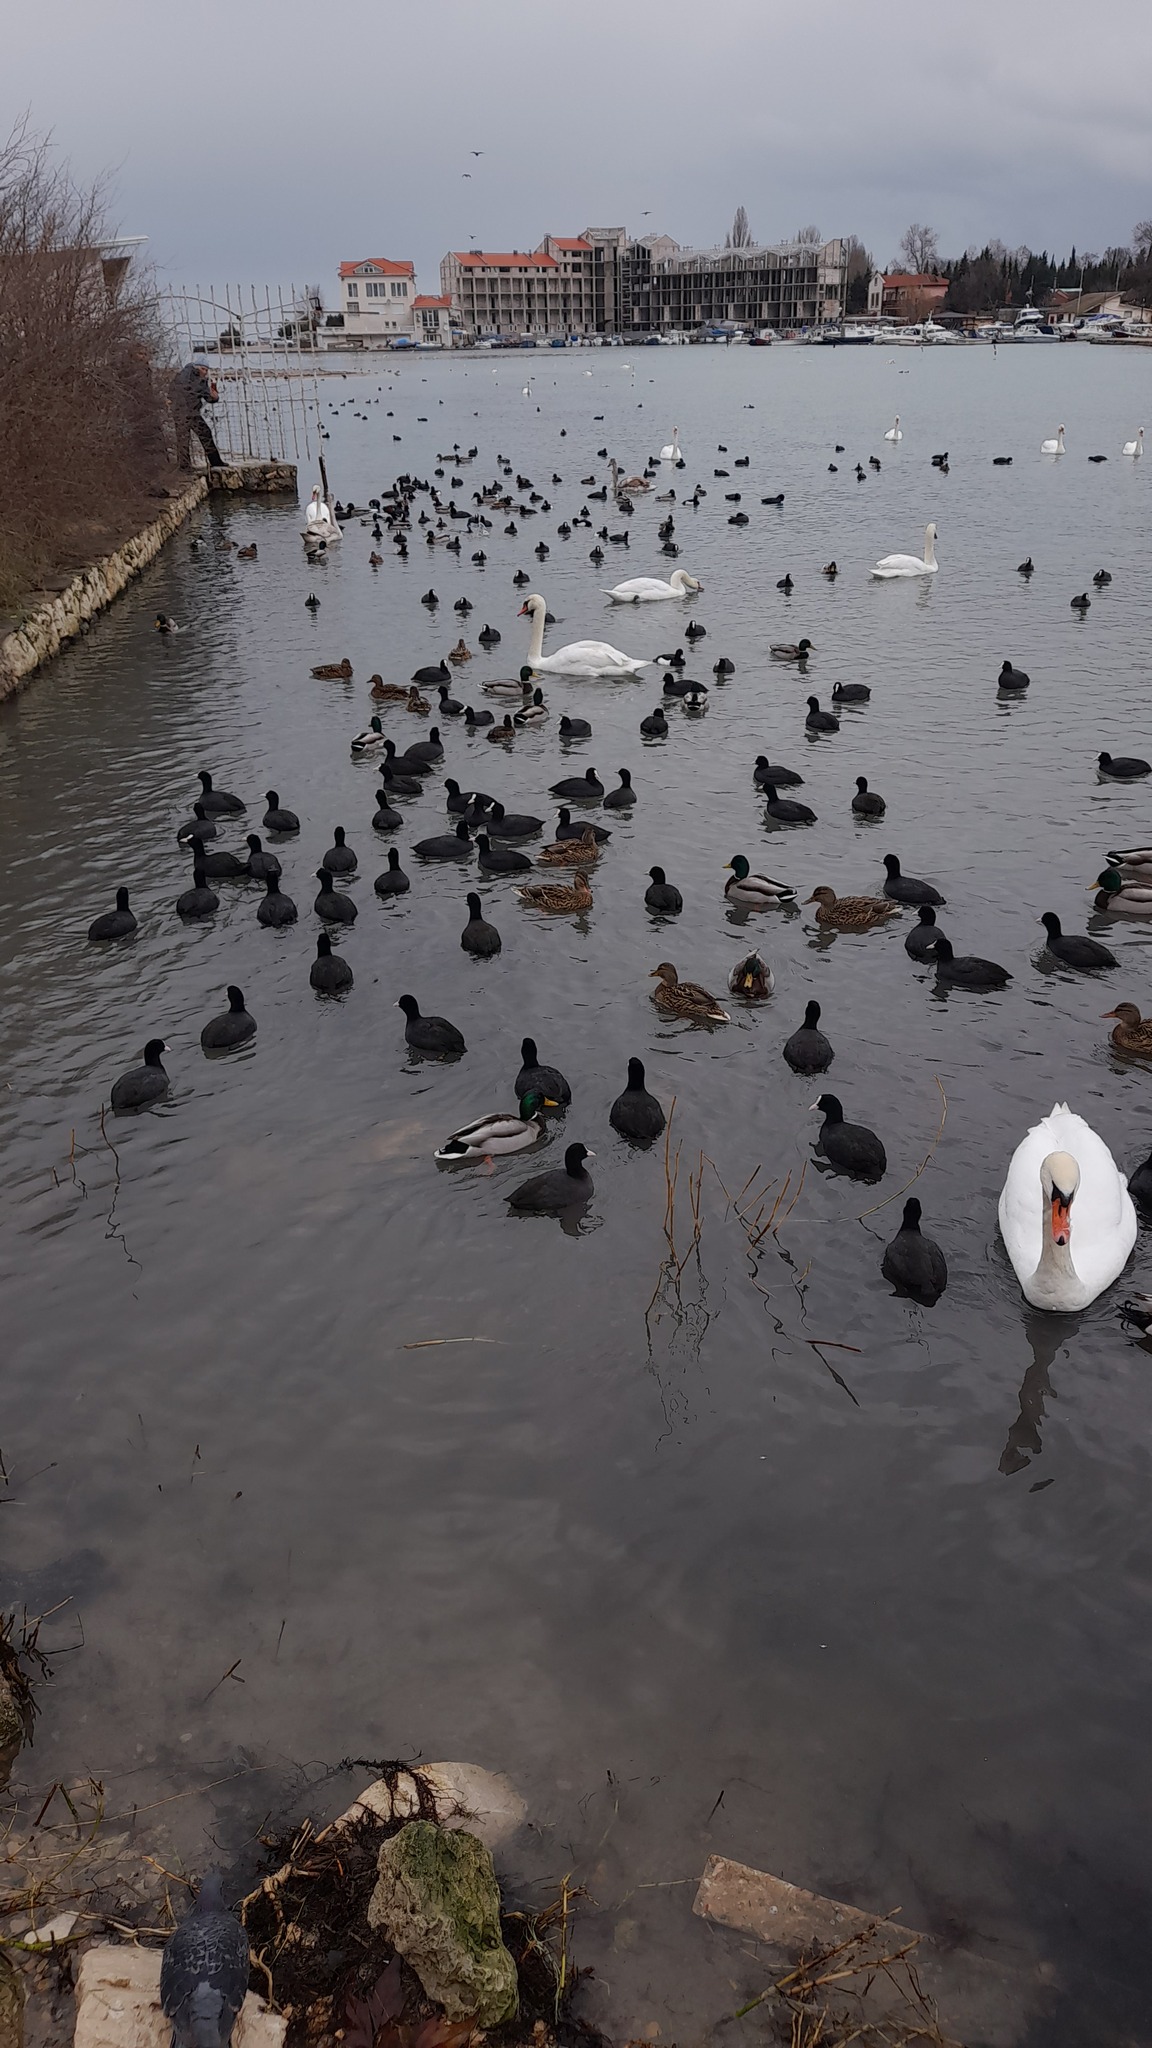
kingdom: Animalia
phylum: Chordata
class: Aves
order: Anseriformes
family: Anatidae
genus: Anas
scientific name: Anas platyrhynchos
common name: Mallard
